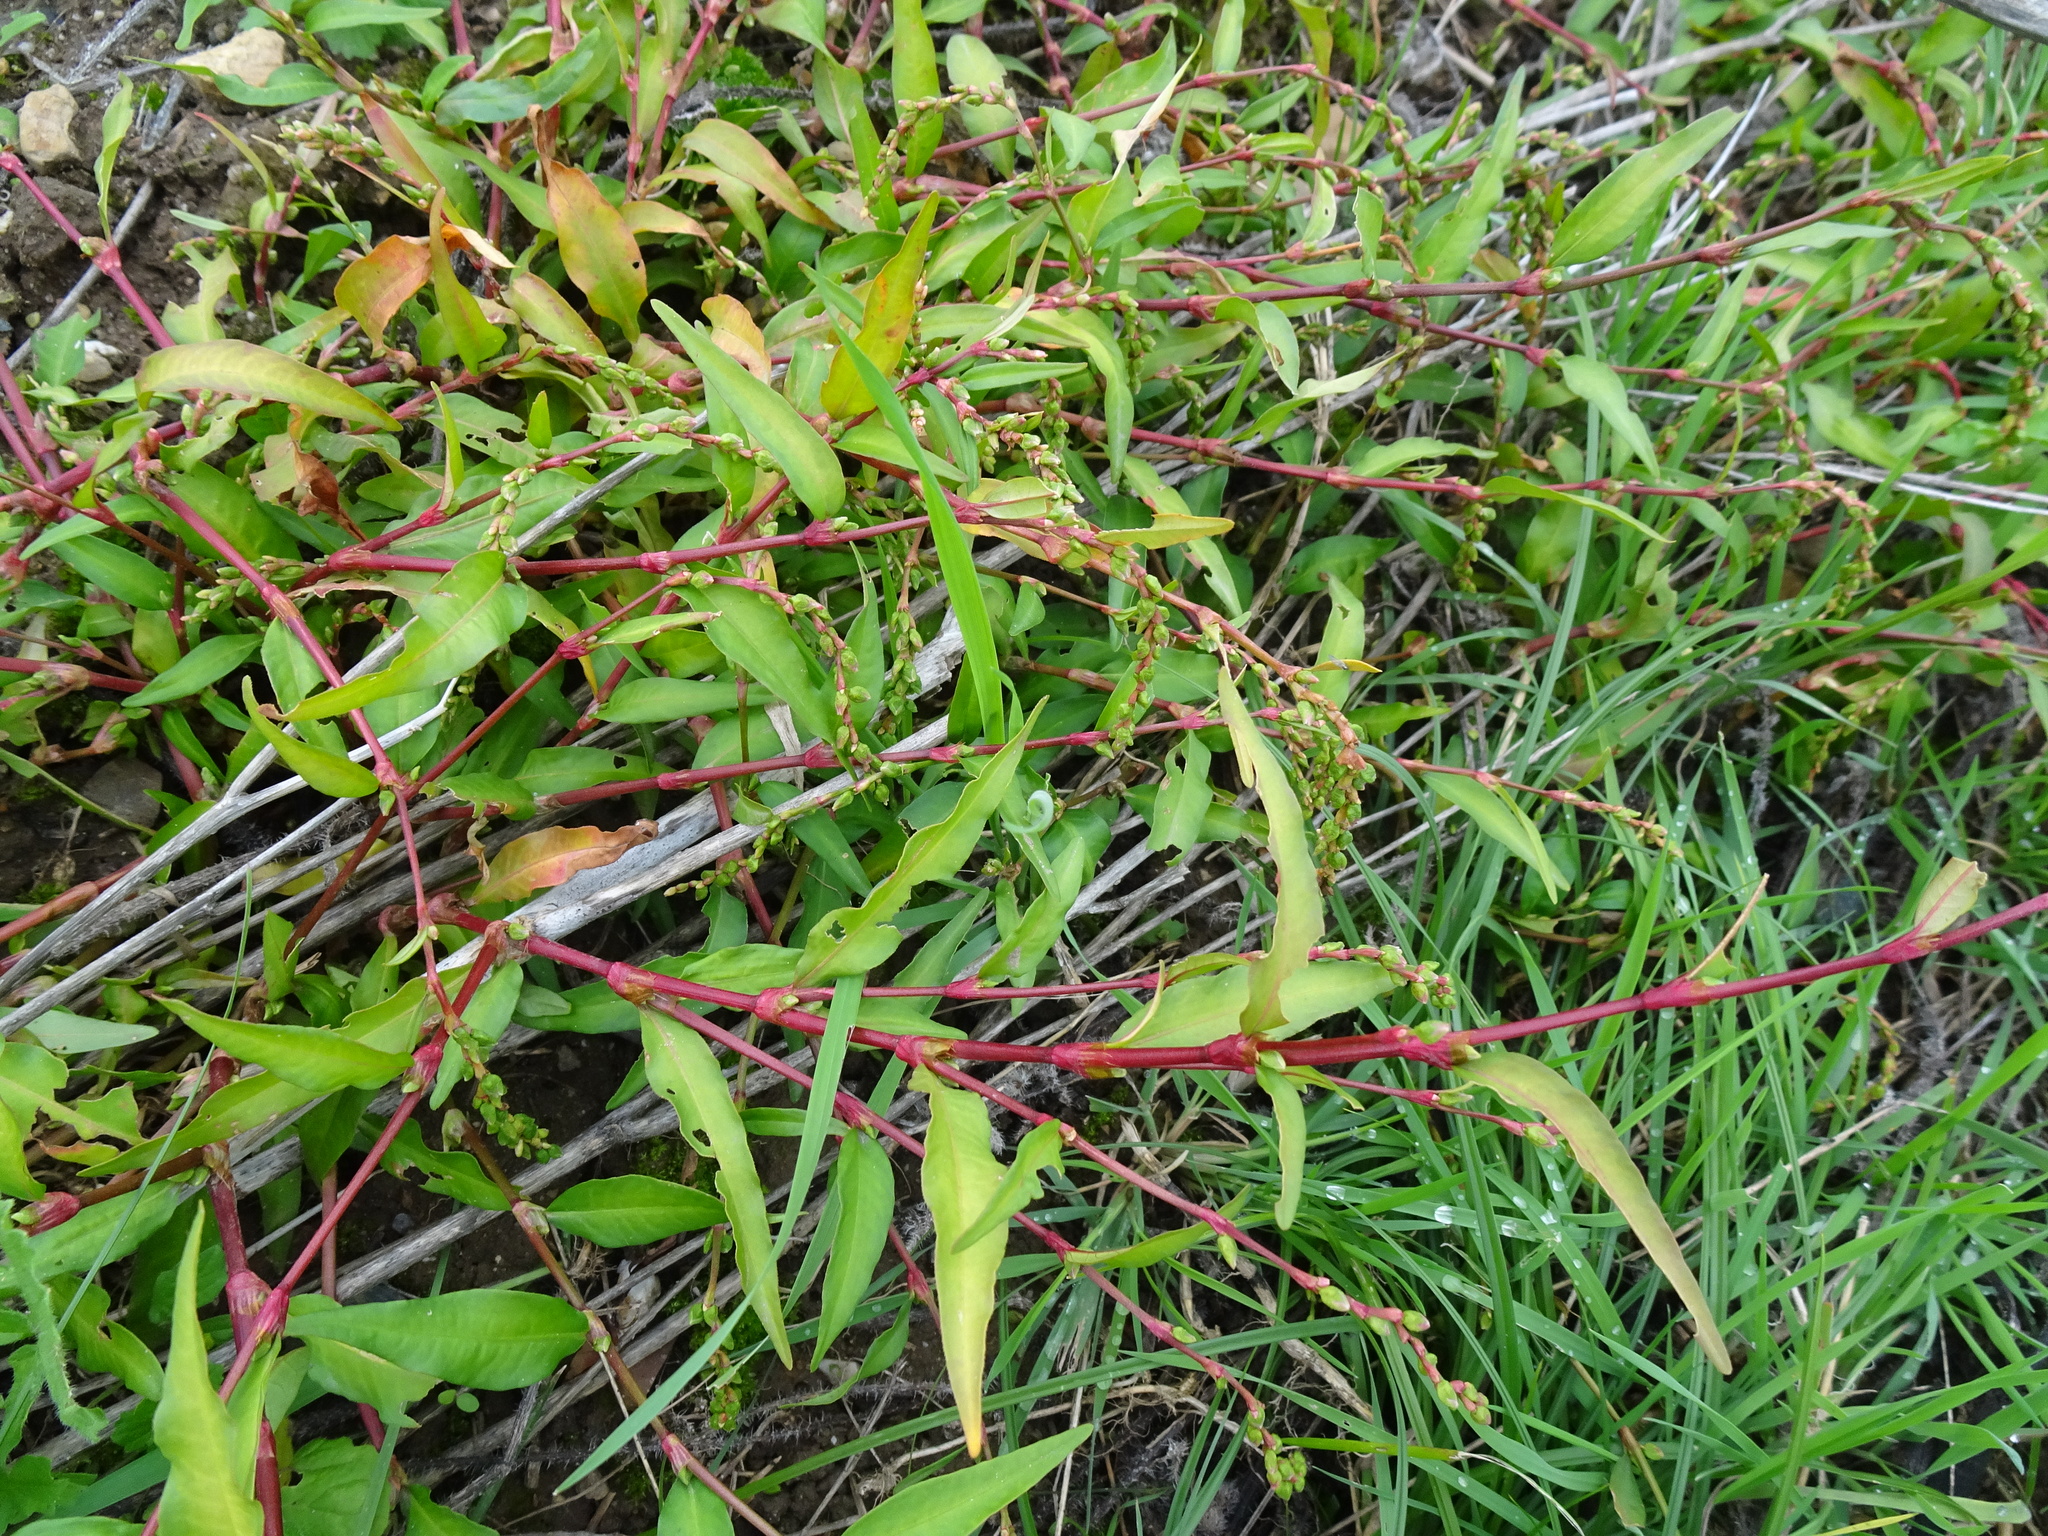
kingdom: Plantae
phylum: Tracheophyta
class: Magnoliopsida
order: Caryophyllales
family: Polygonaceae
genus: Persicaria
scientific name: Persicaria hydropiper
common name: Water-pepper
